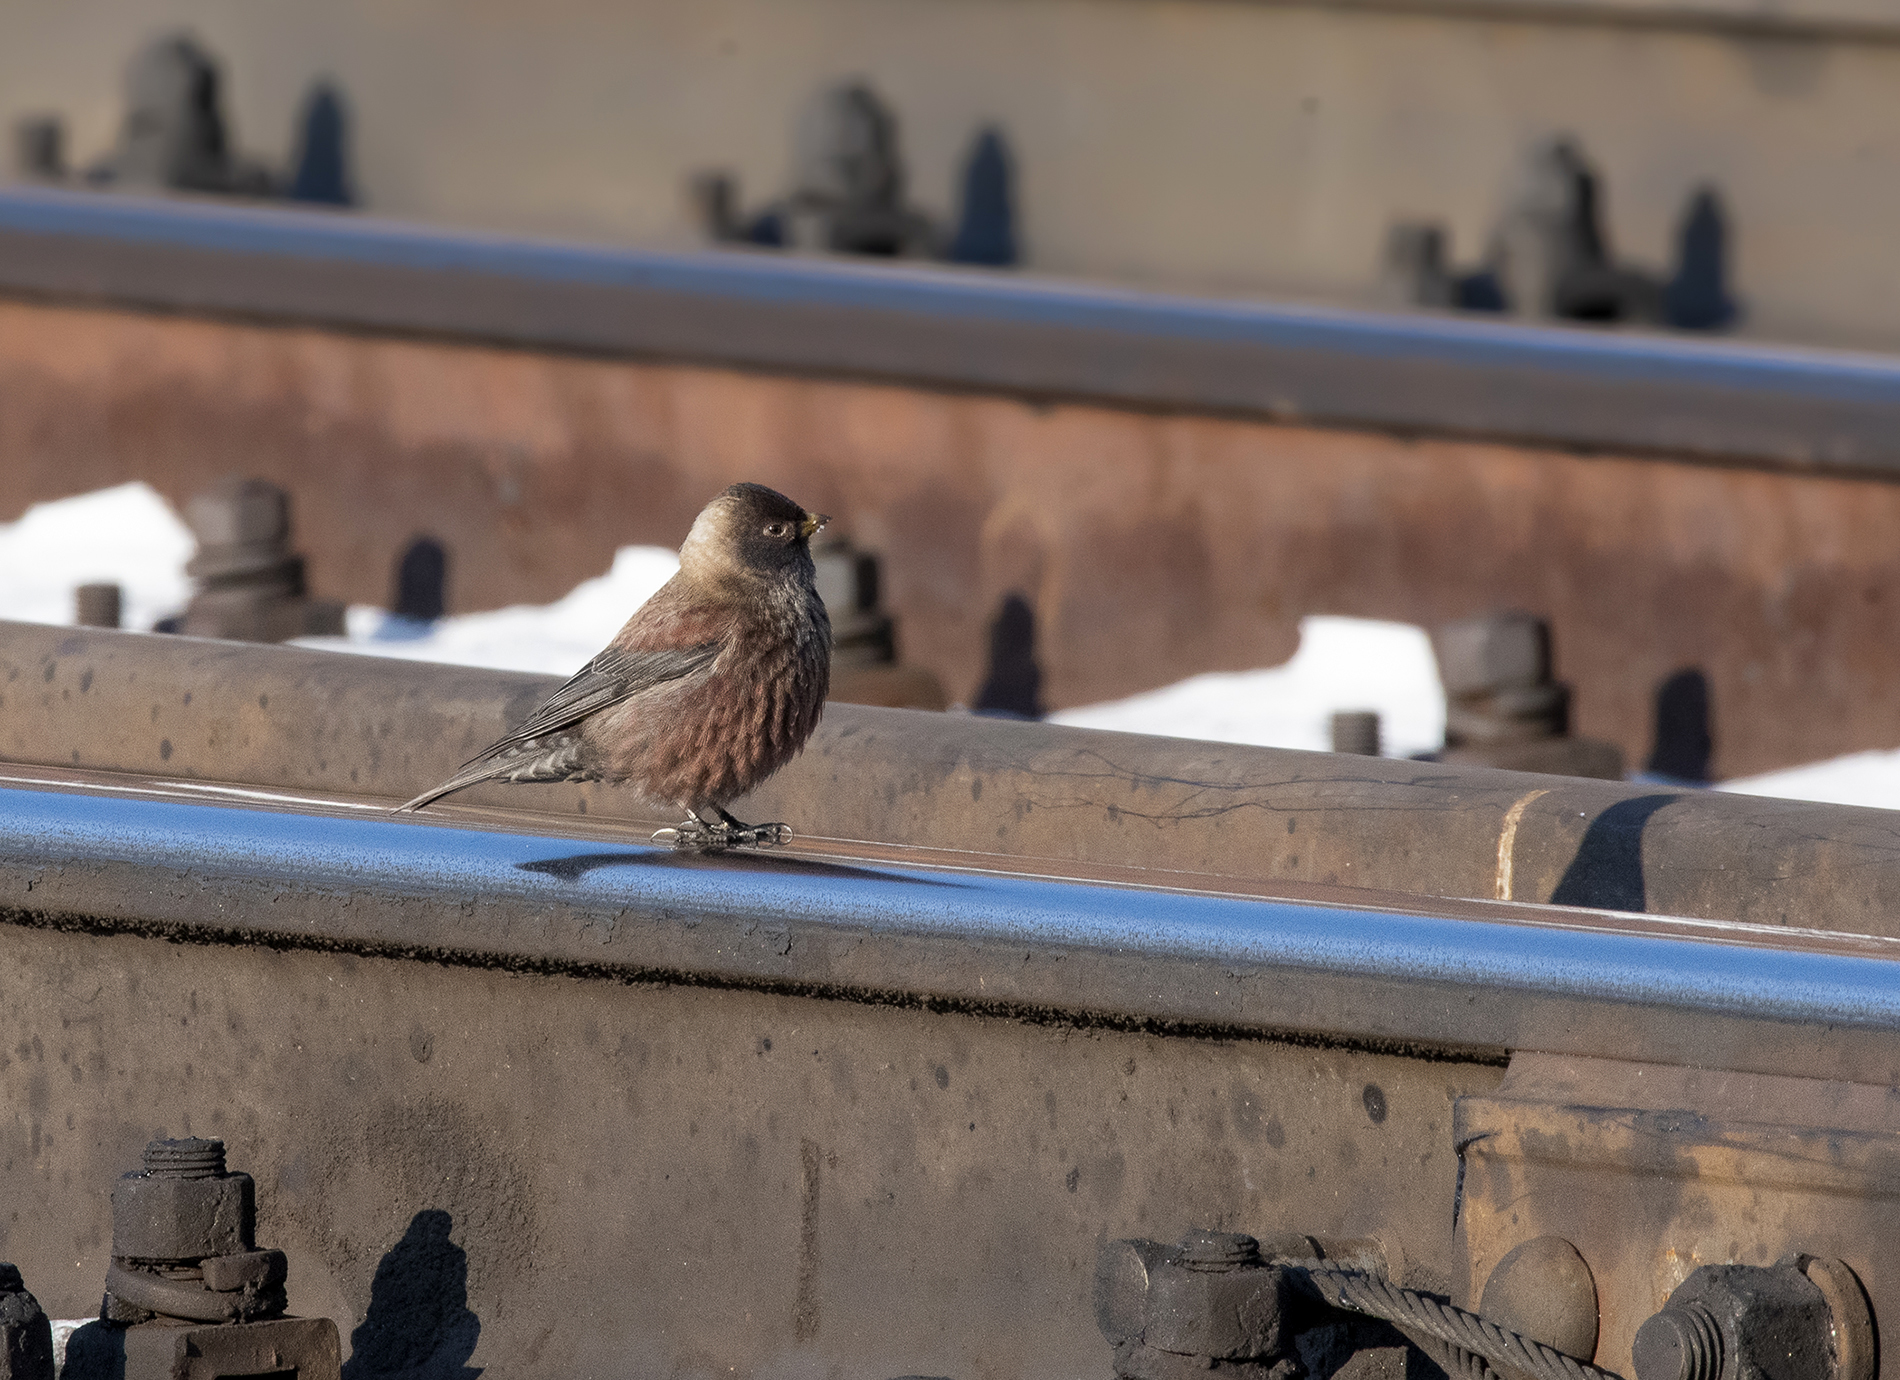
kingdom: Animalia
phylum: Chordata
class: Aves
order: Passeriformes
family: Fringillidae
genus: Leucosticte
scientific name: Leucosticte arctoa
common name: Asian rosy finch
